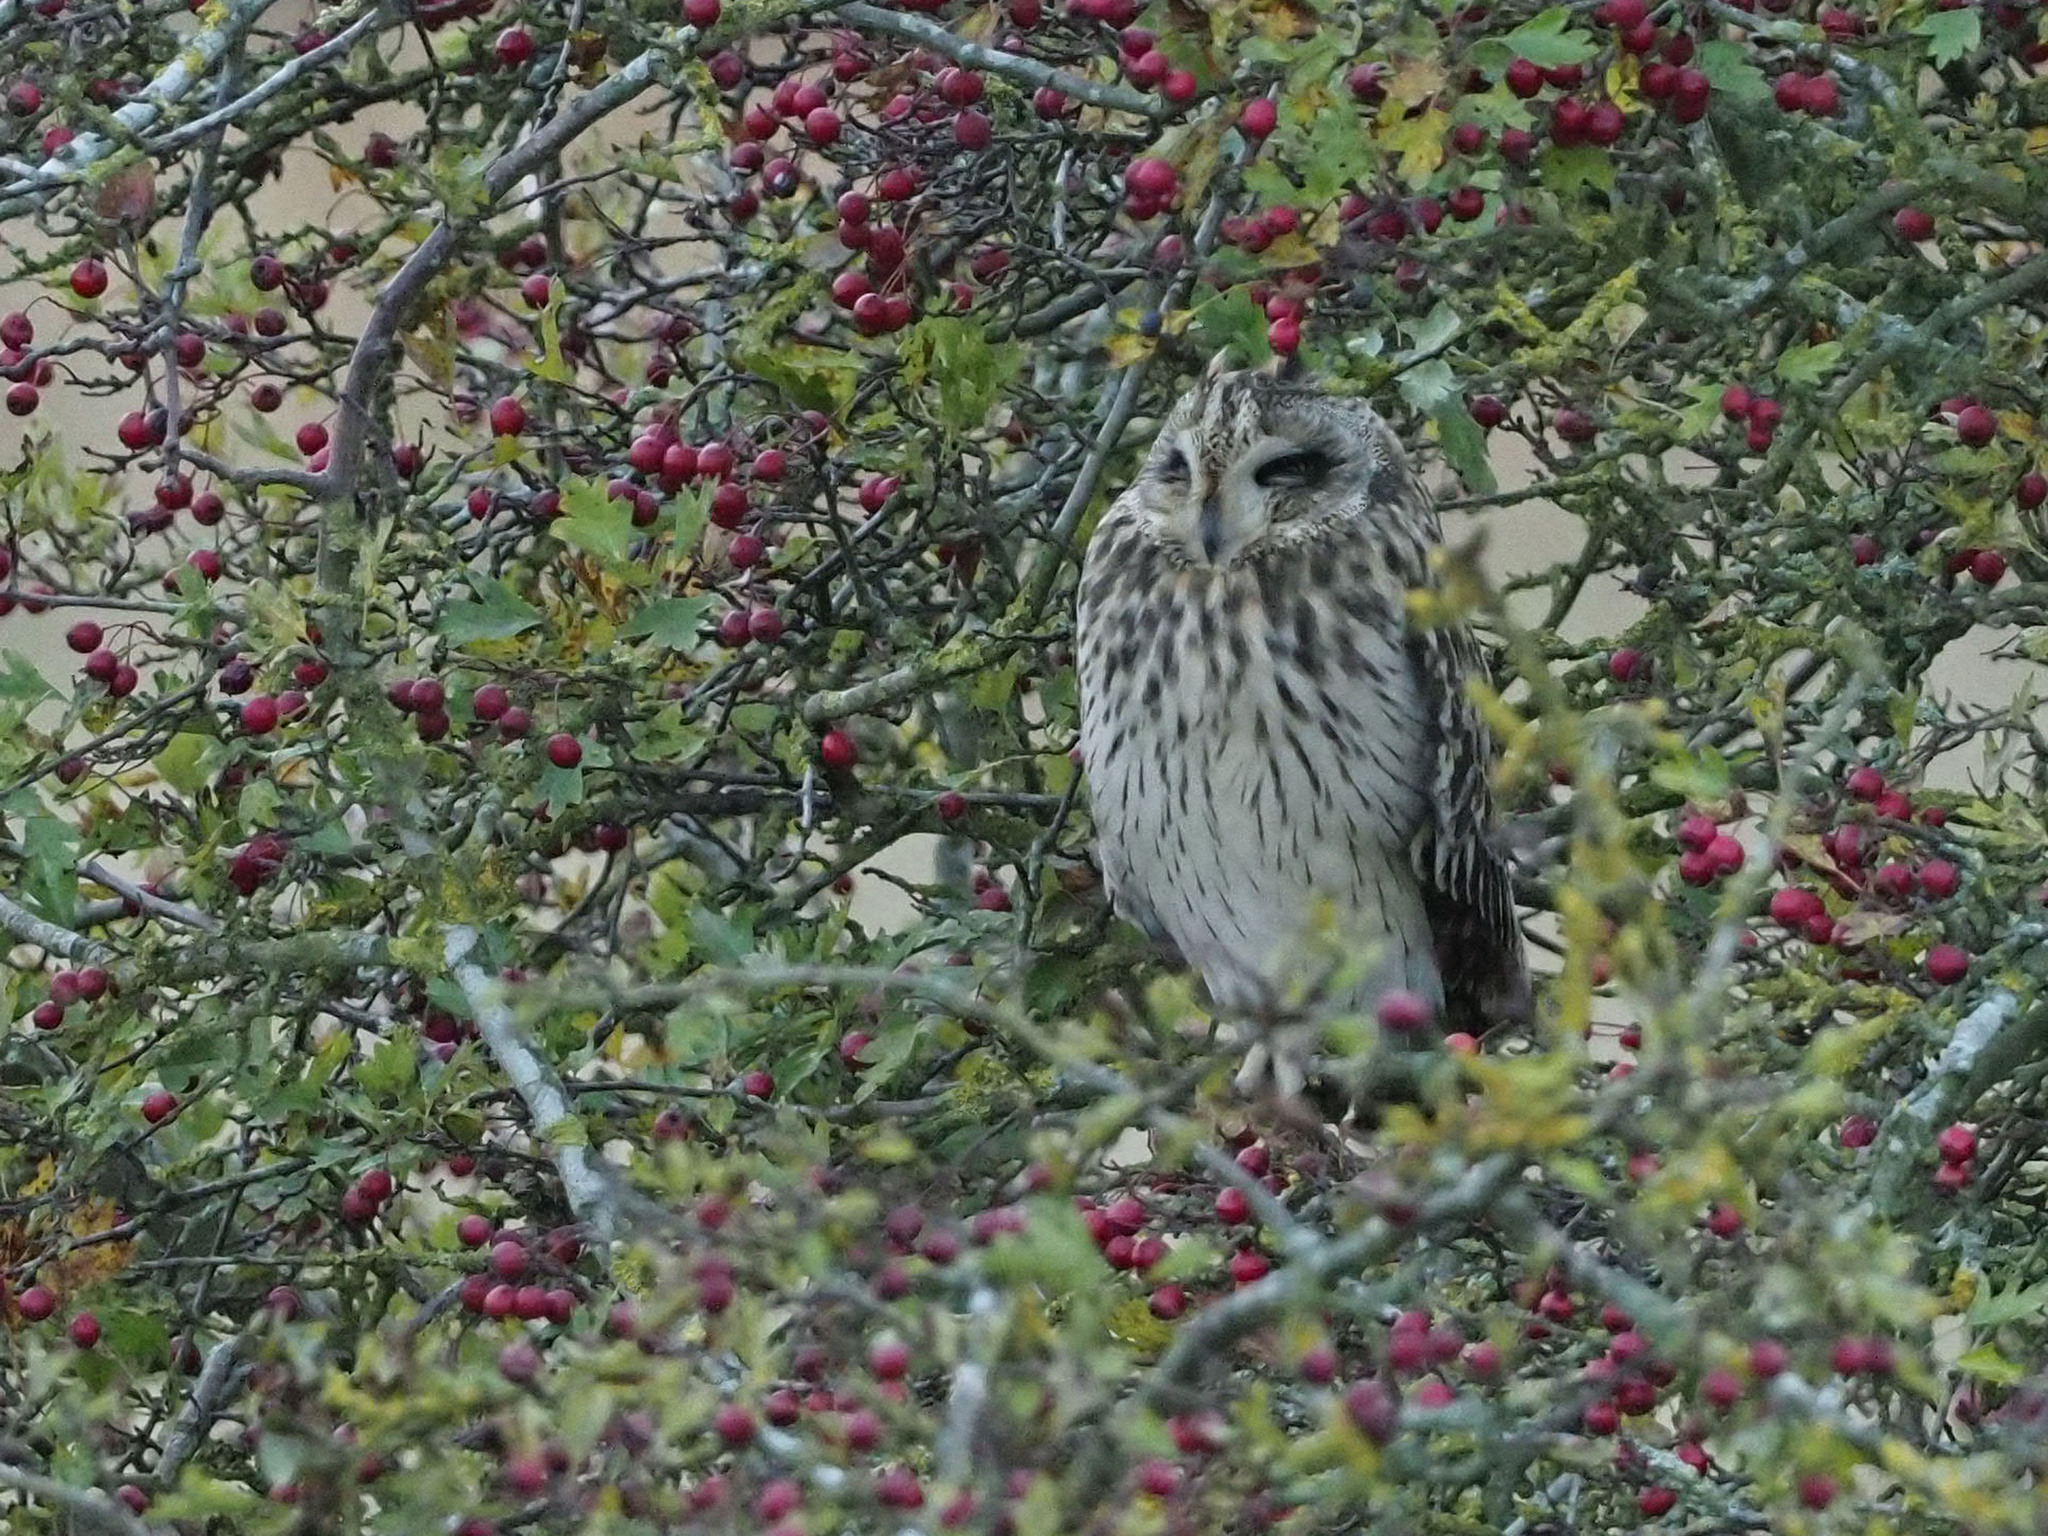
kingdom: Animalia
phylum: Chordata
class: Aves
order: Strigiformes
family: Strigidae
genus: Asio
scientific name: Asio flammeus
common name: Short-eared owl
